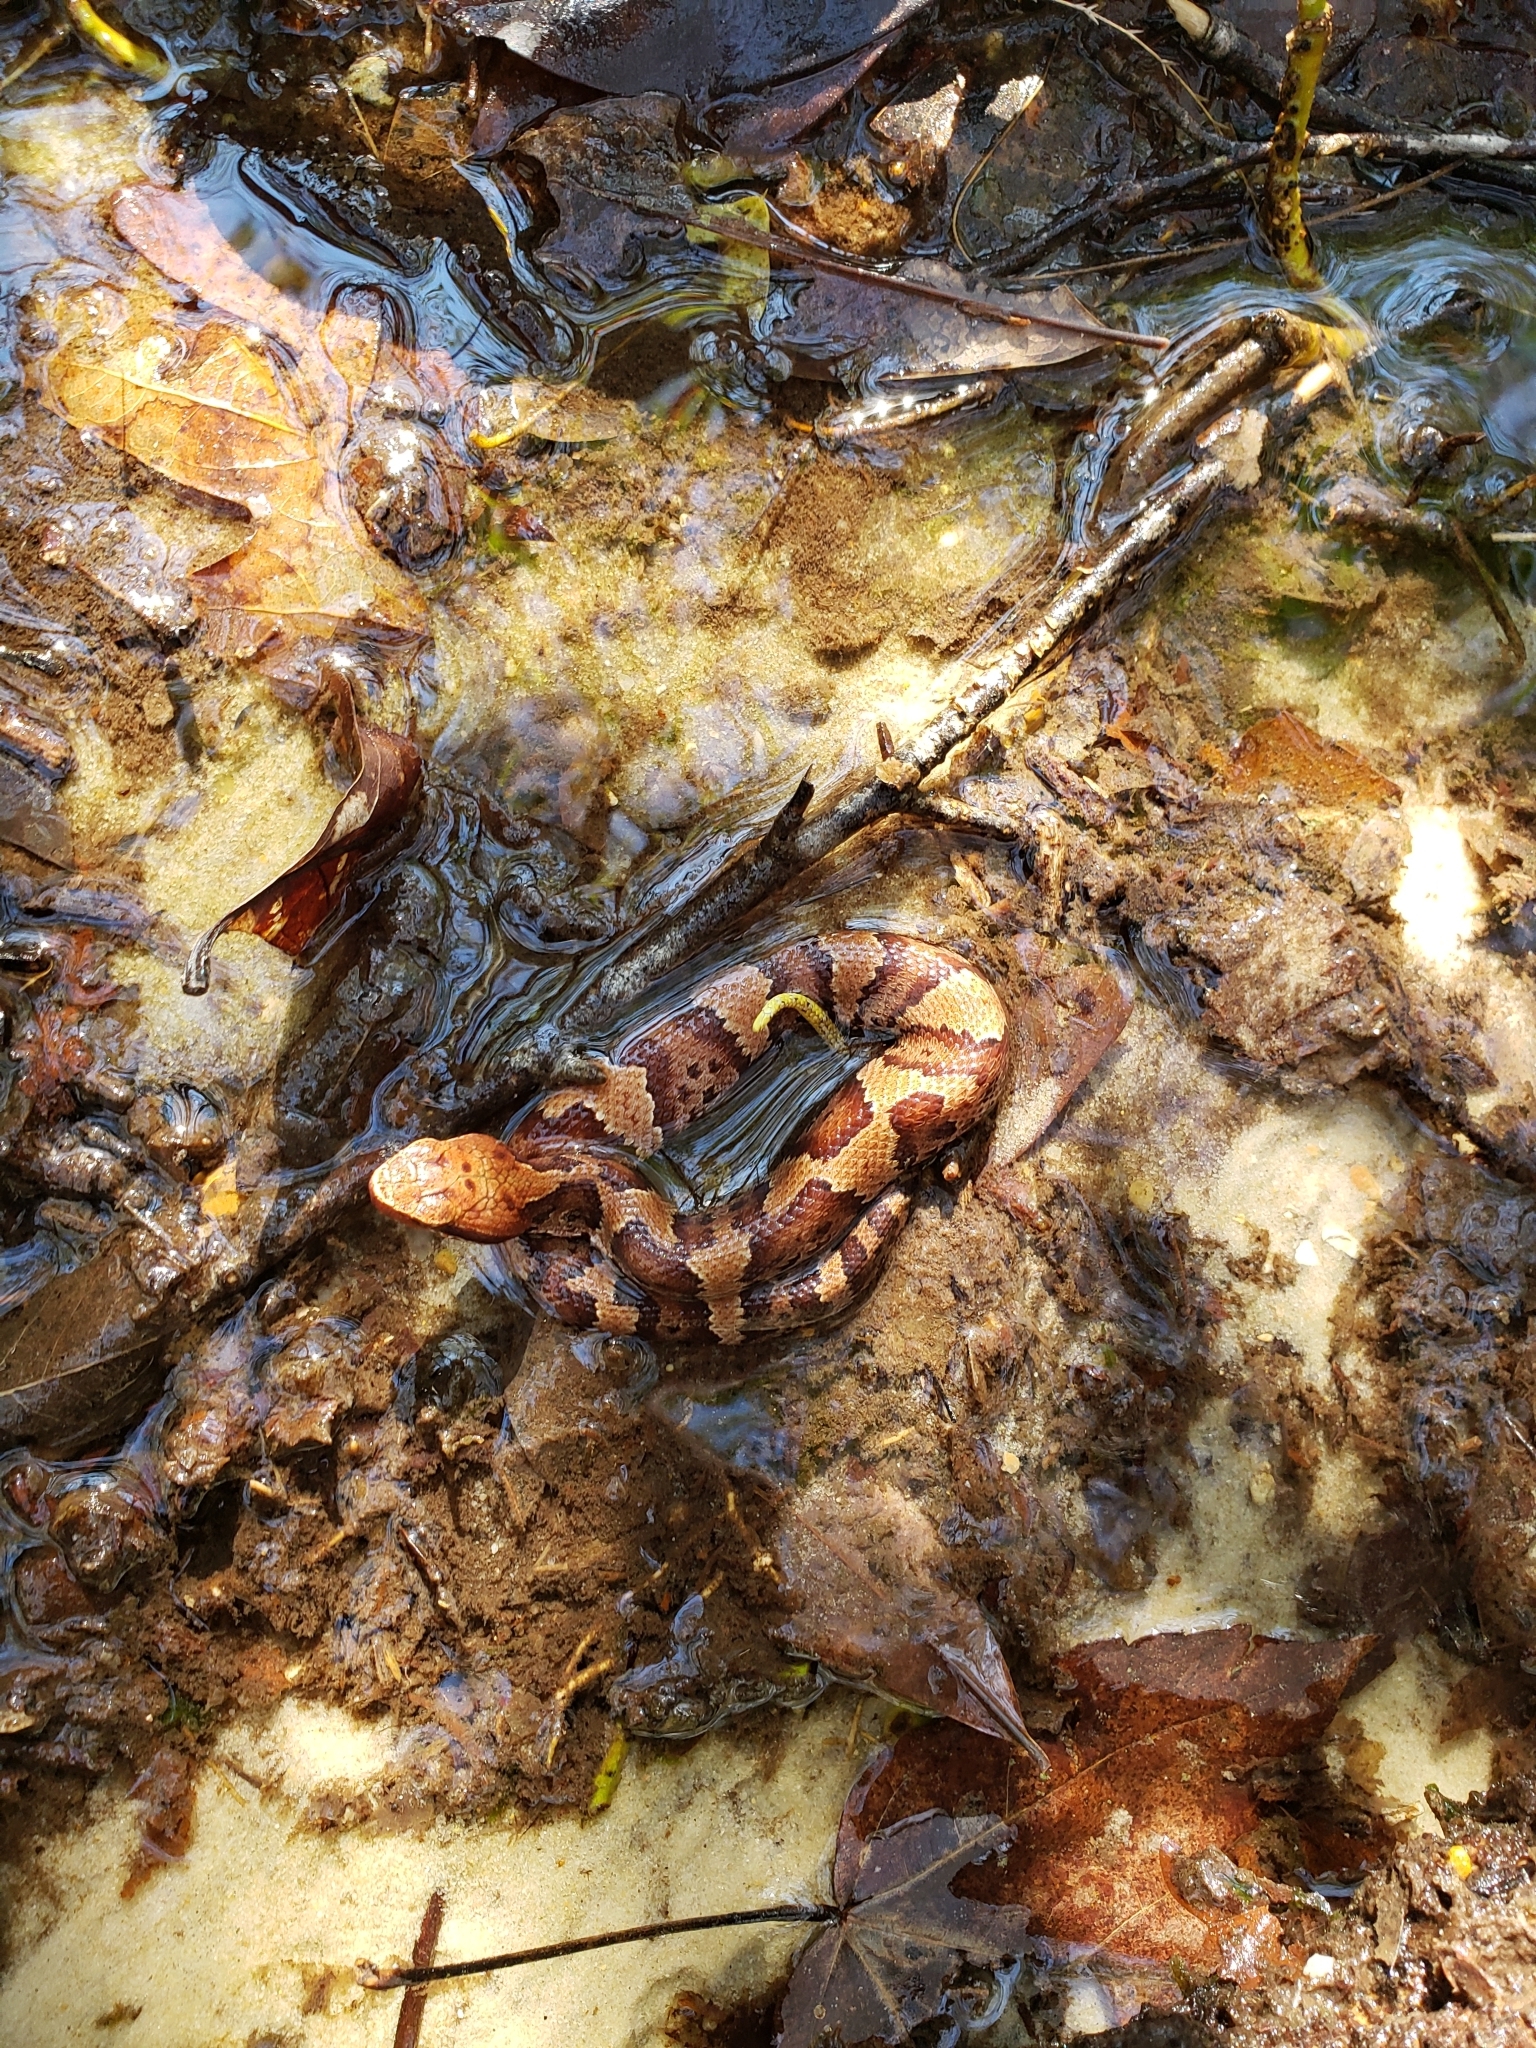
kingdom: Animalia
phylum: Chordata
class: Squamata
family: Viperidae
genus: Agkistrodon
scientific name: Agkistrodon piscivorus
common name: Cottonmouth
